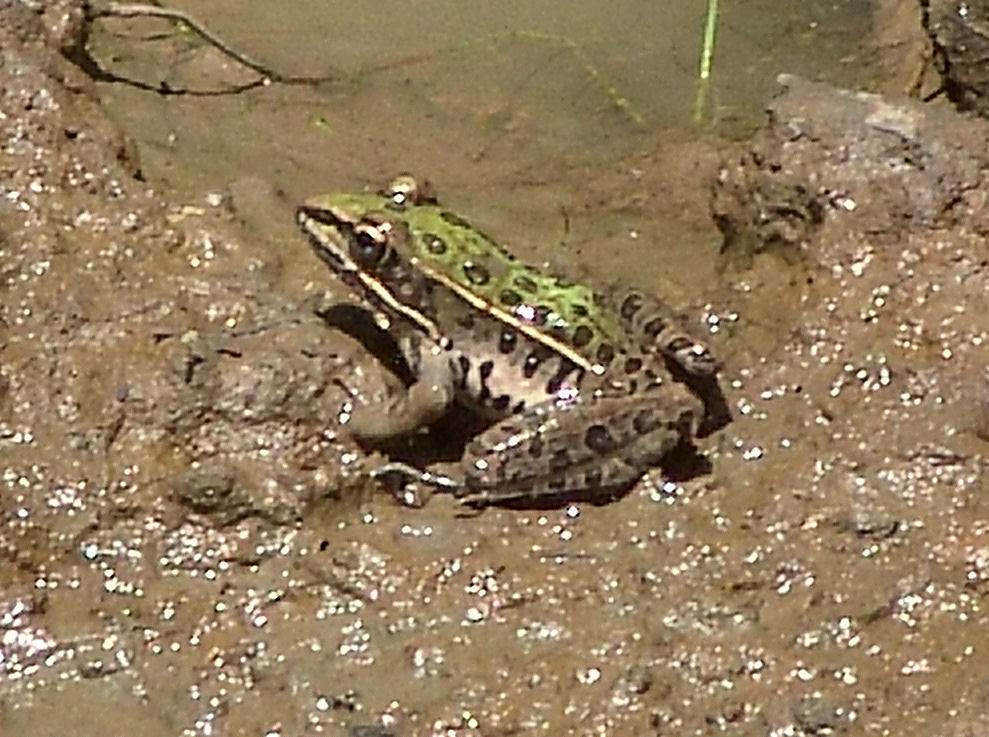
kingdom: Animalia
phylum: Chordata
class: Amphibia
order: Anura
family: Ranidae
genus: Lithobates
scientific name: Lithobates sphenocephalus
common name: Southern leopard frog
